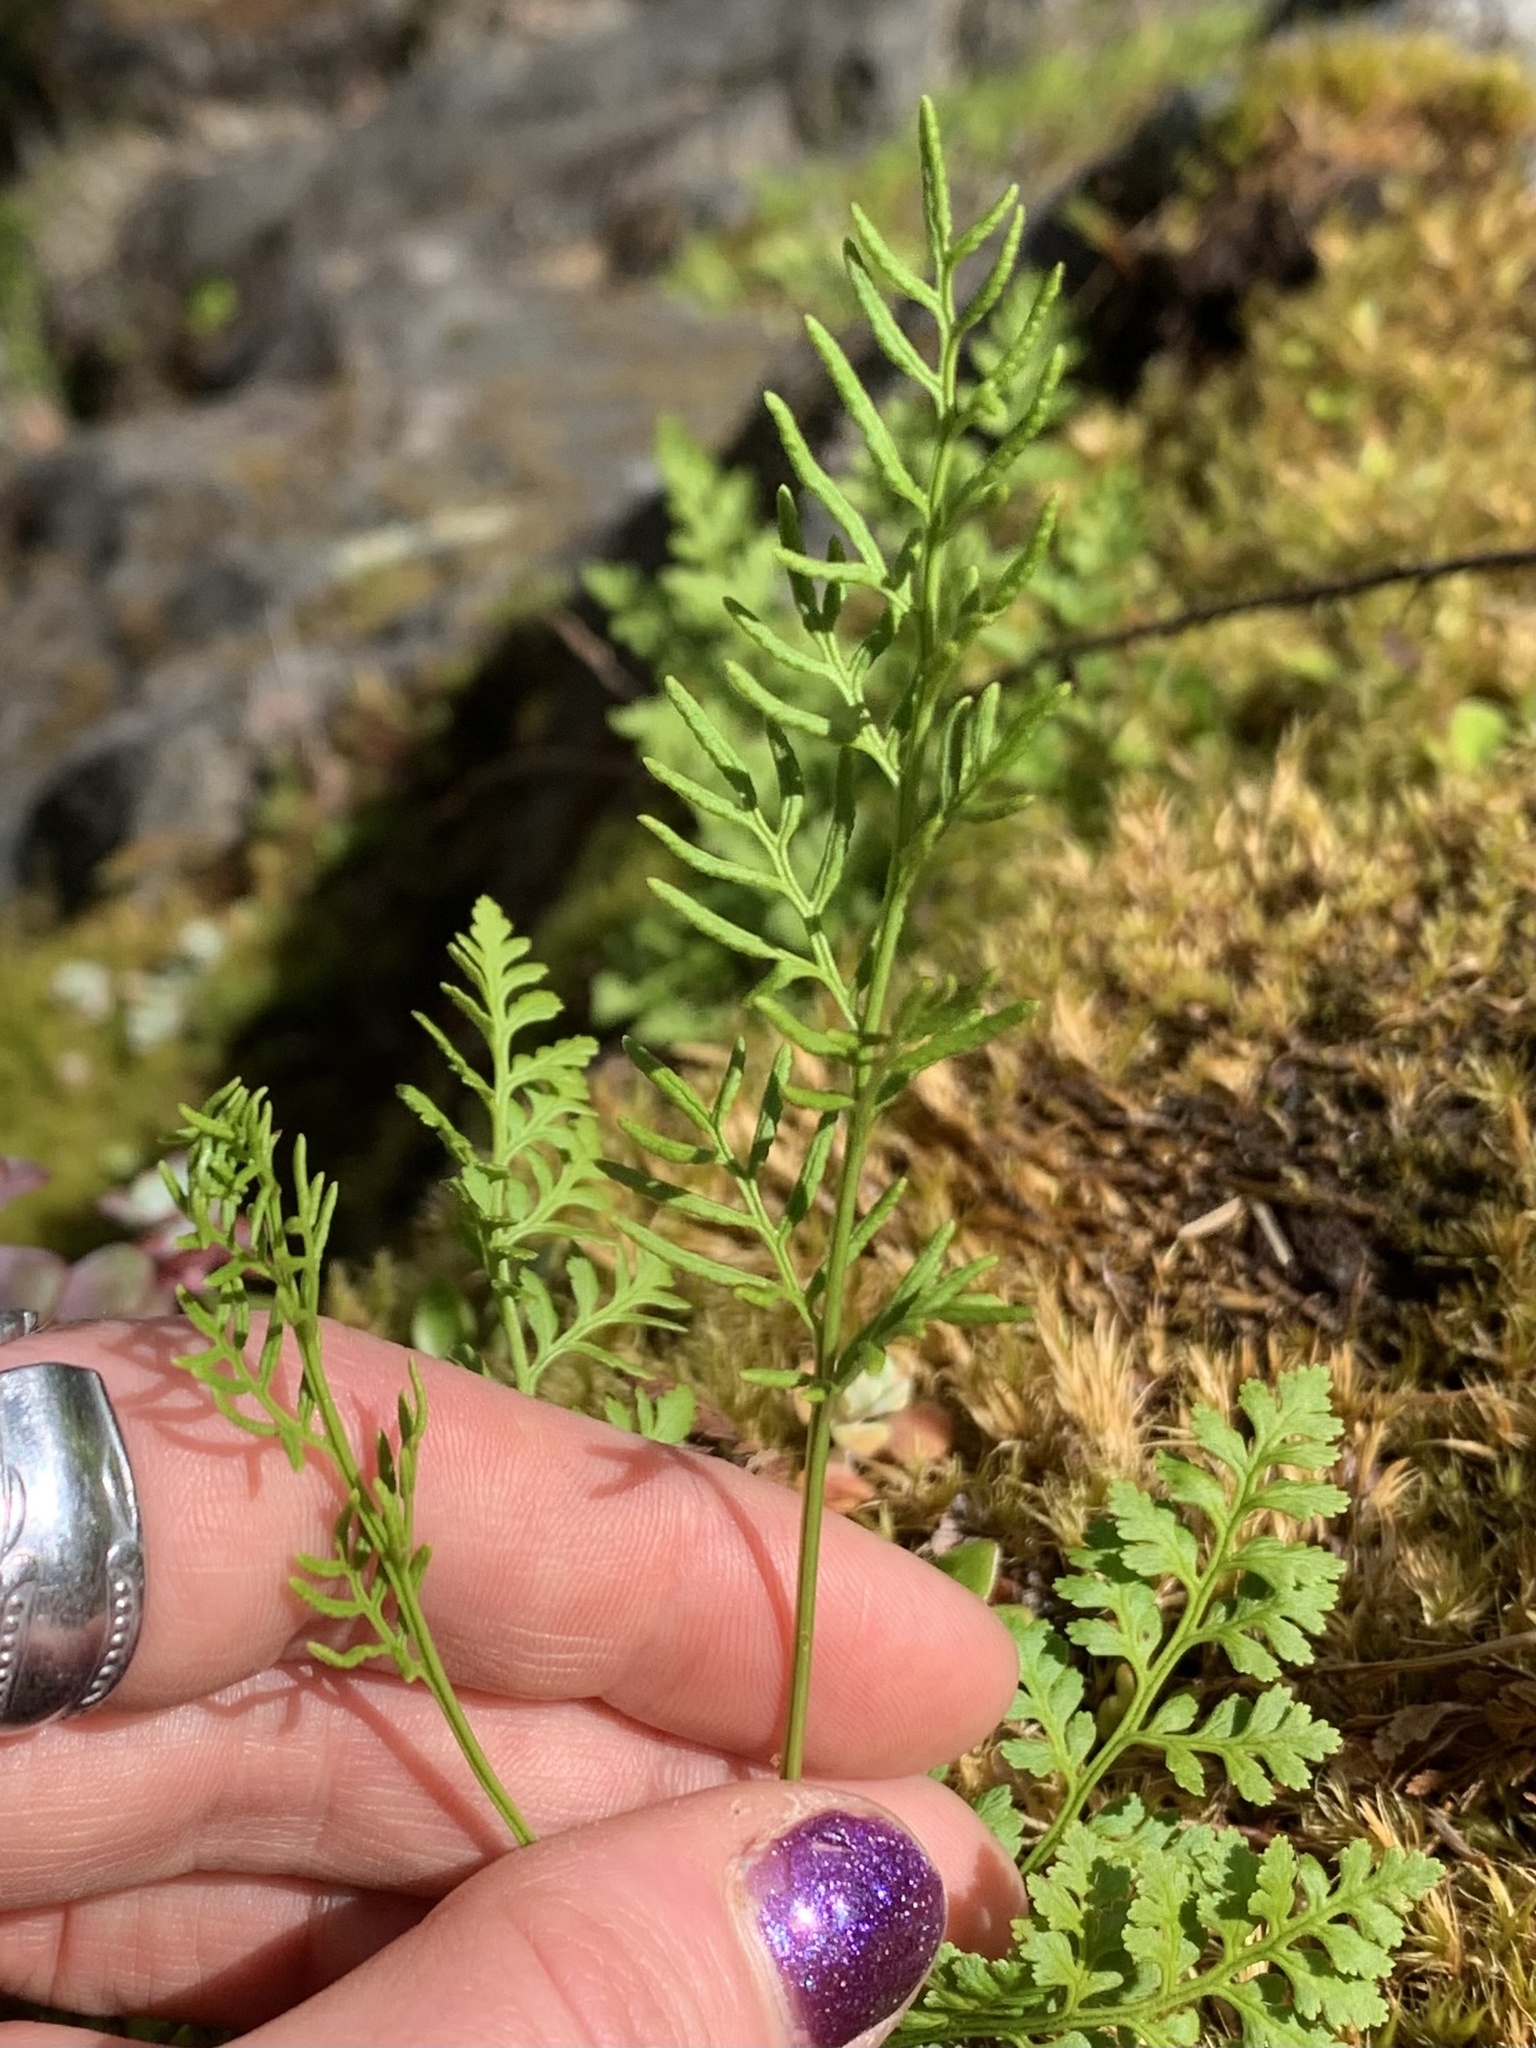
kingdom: Plantae
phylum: Tracheophyta
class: Polypodiopsida
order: Polypodiales
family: Pteridaceae
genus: Cryptogramma
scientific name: Cryptogramma acrostichoides
